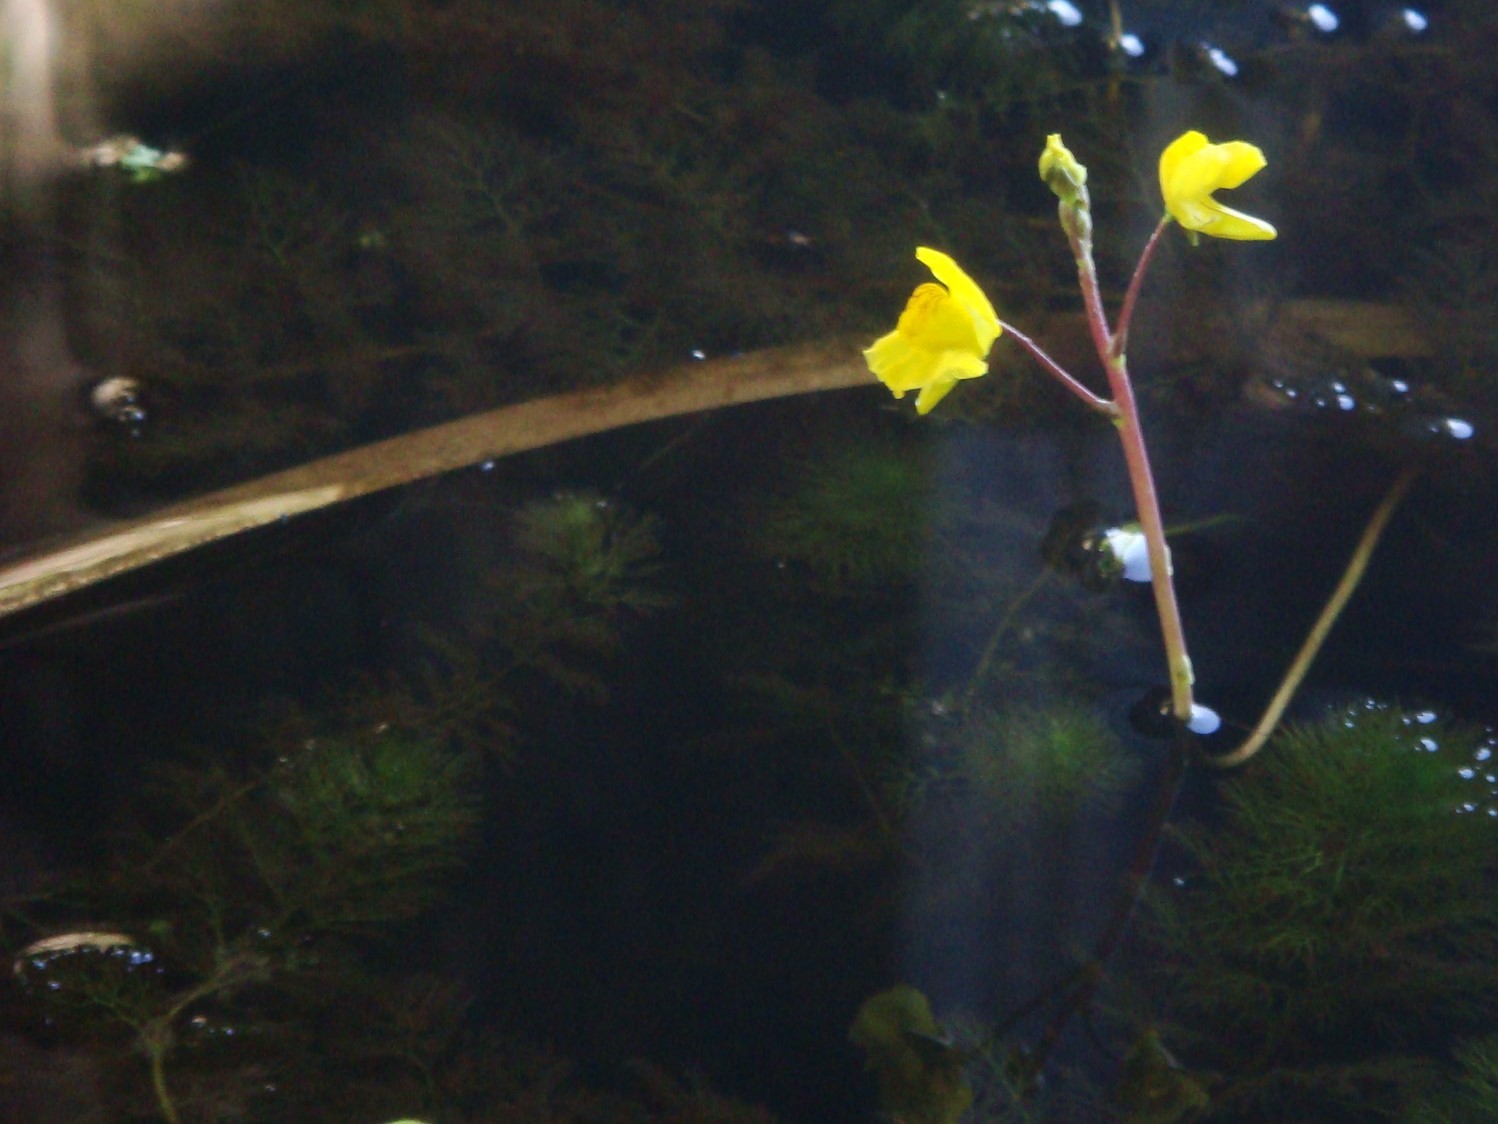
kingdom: Plantae
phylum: Tracheophyta
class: Magnoliopsida
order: Lamiales
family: Lentibulariaceae
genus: Utricularia
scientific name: Utricularia australis
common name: Bladderwort
